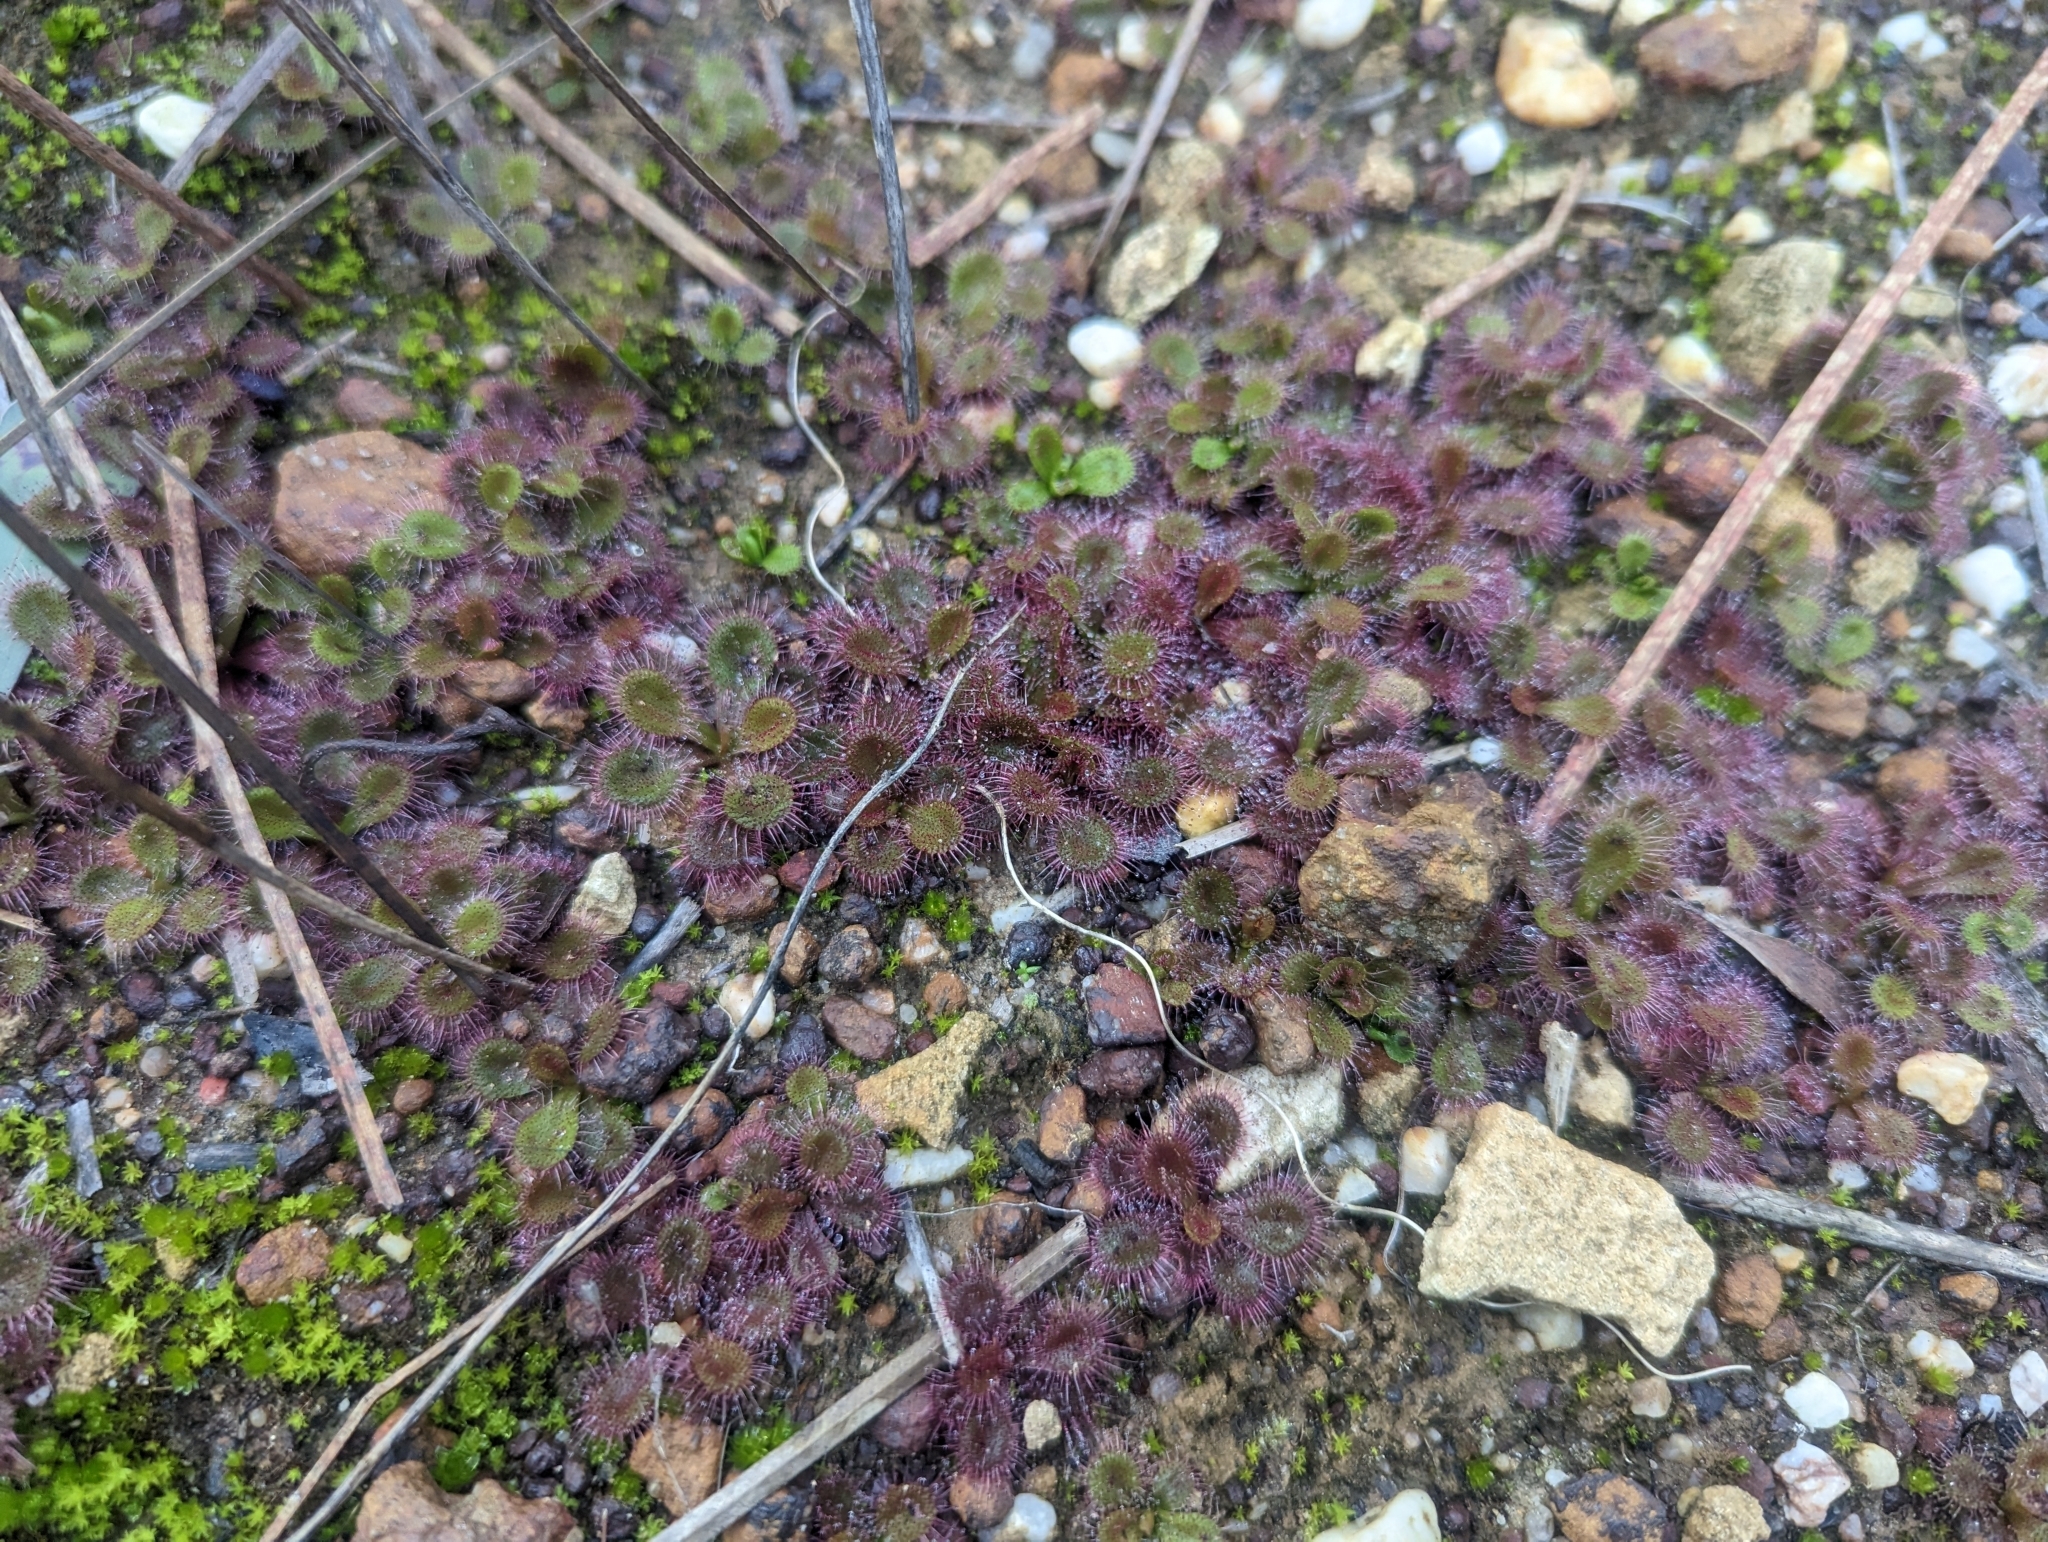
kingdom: Plantae
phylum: Tracheophyta
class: Magnoliopsida
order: Caryophyllales
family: Droseraceae
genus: Drosera
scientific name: Drosera aberrans
